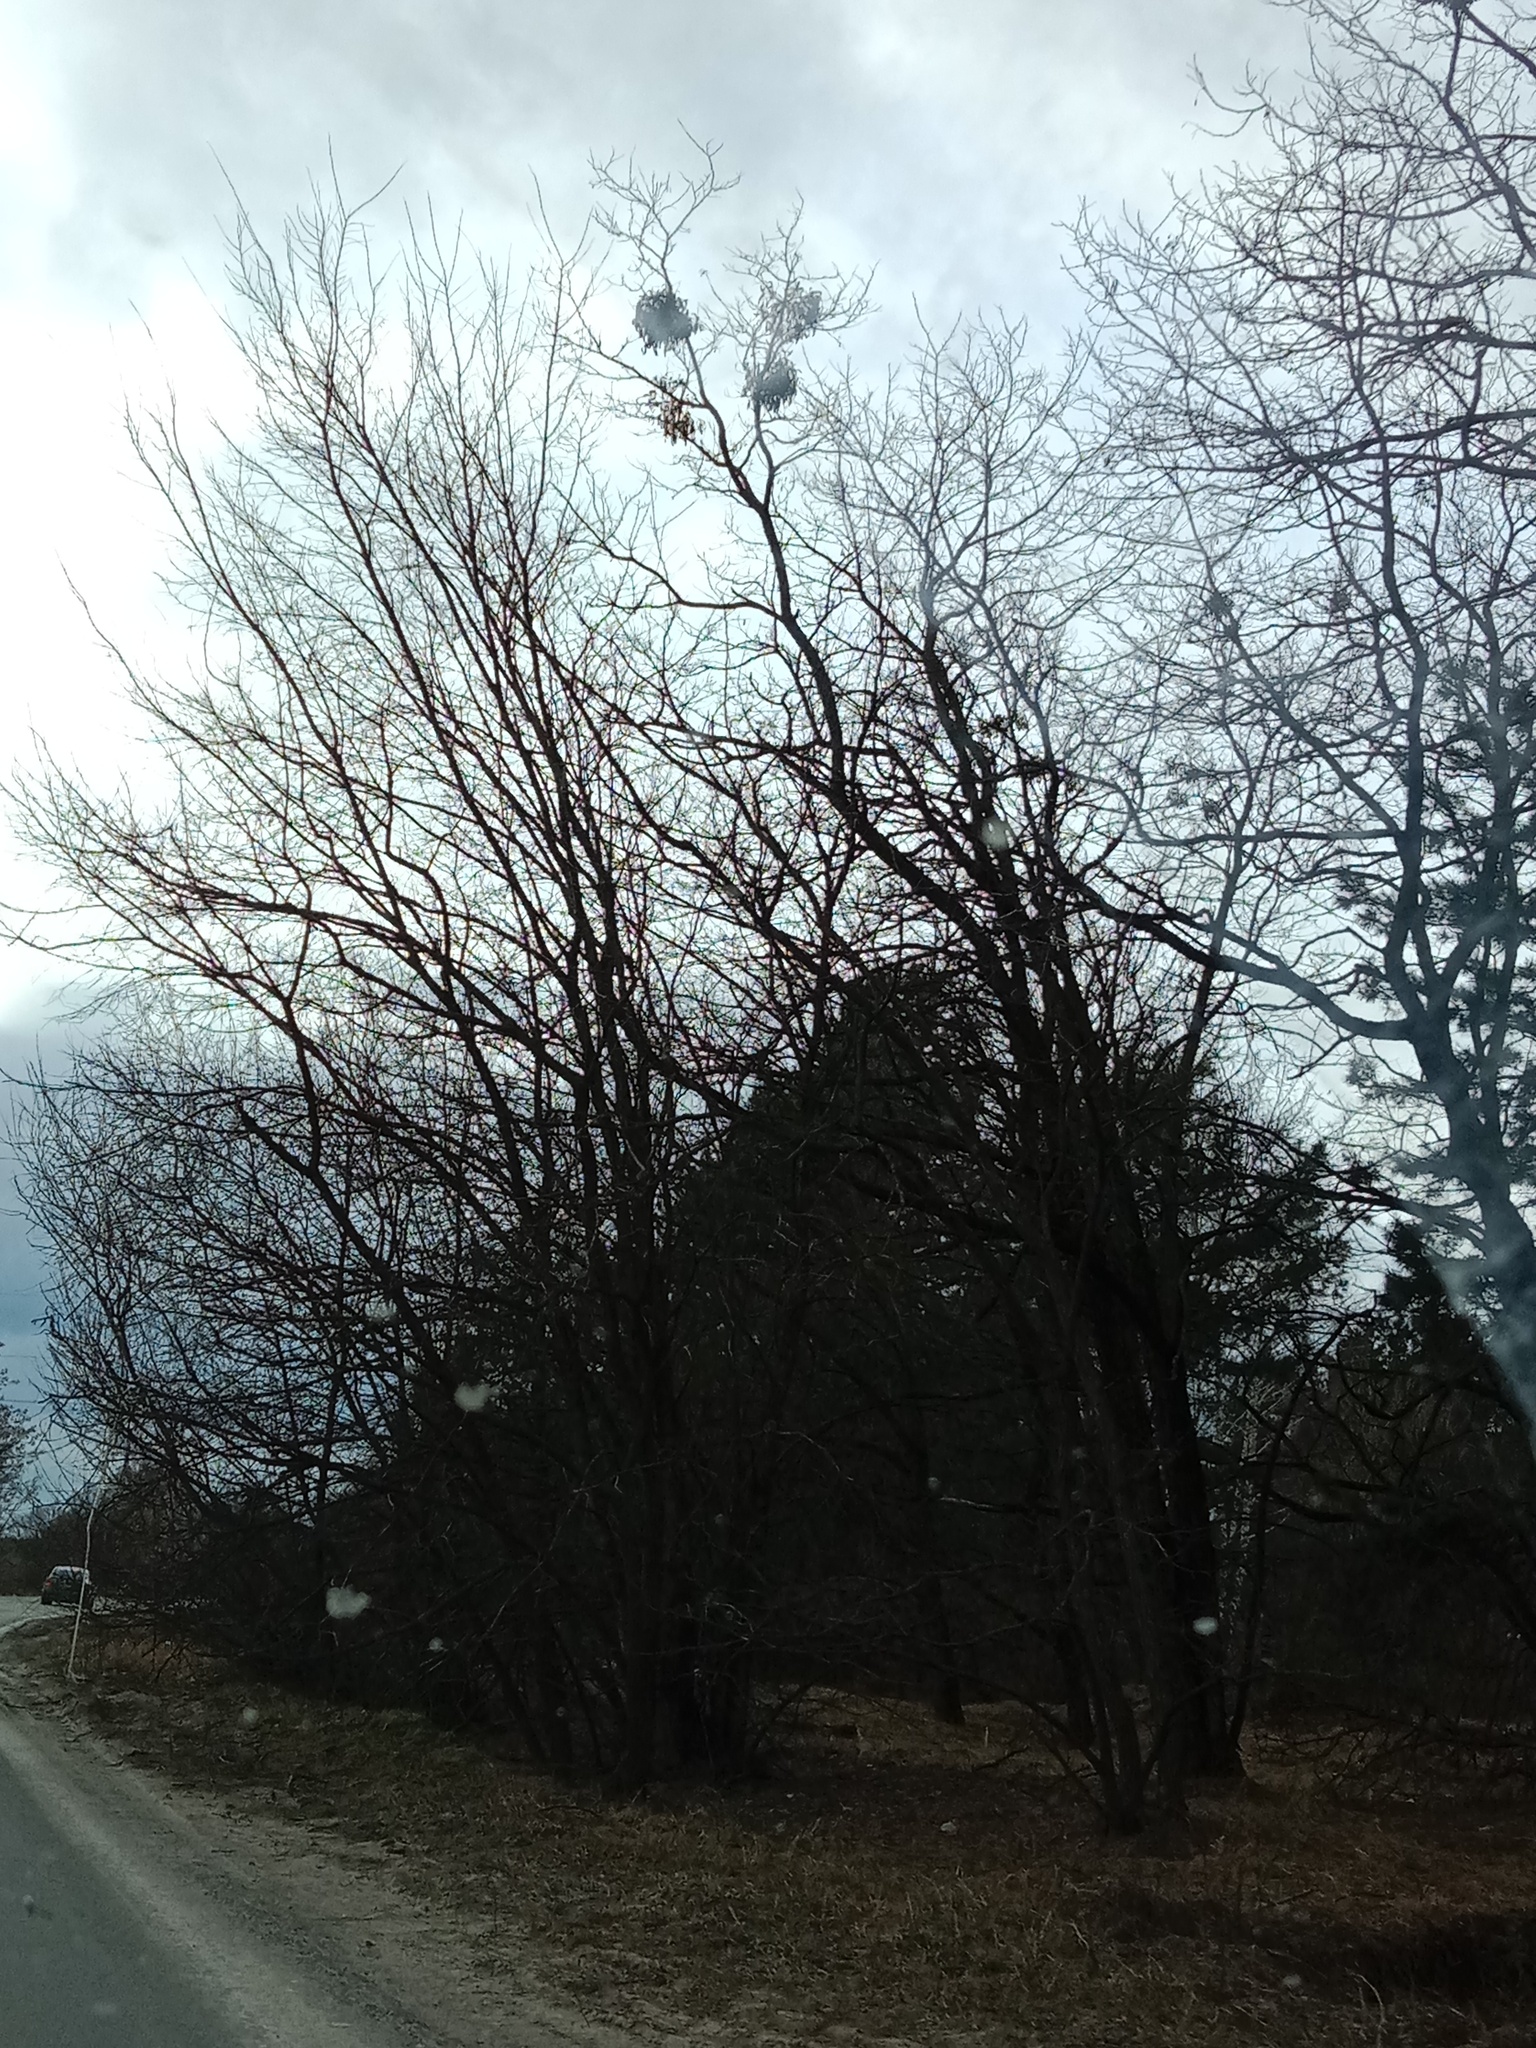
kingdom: Plantae
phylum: Tracheophyta
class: Magnoliopsida
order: Santalales
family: Viscaceae
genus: Viscum
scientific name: Viscum album
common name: Mistletoe
